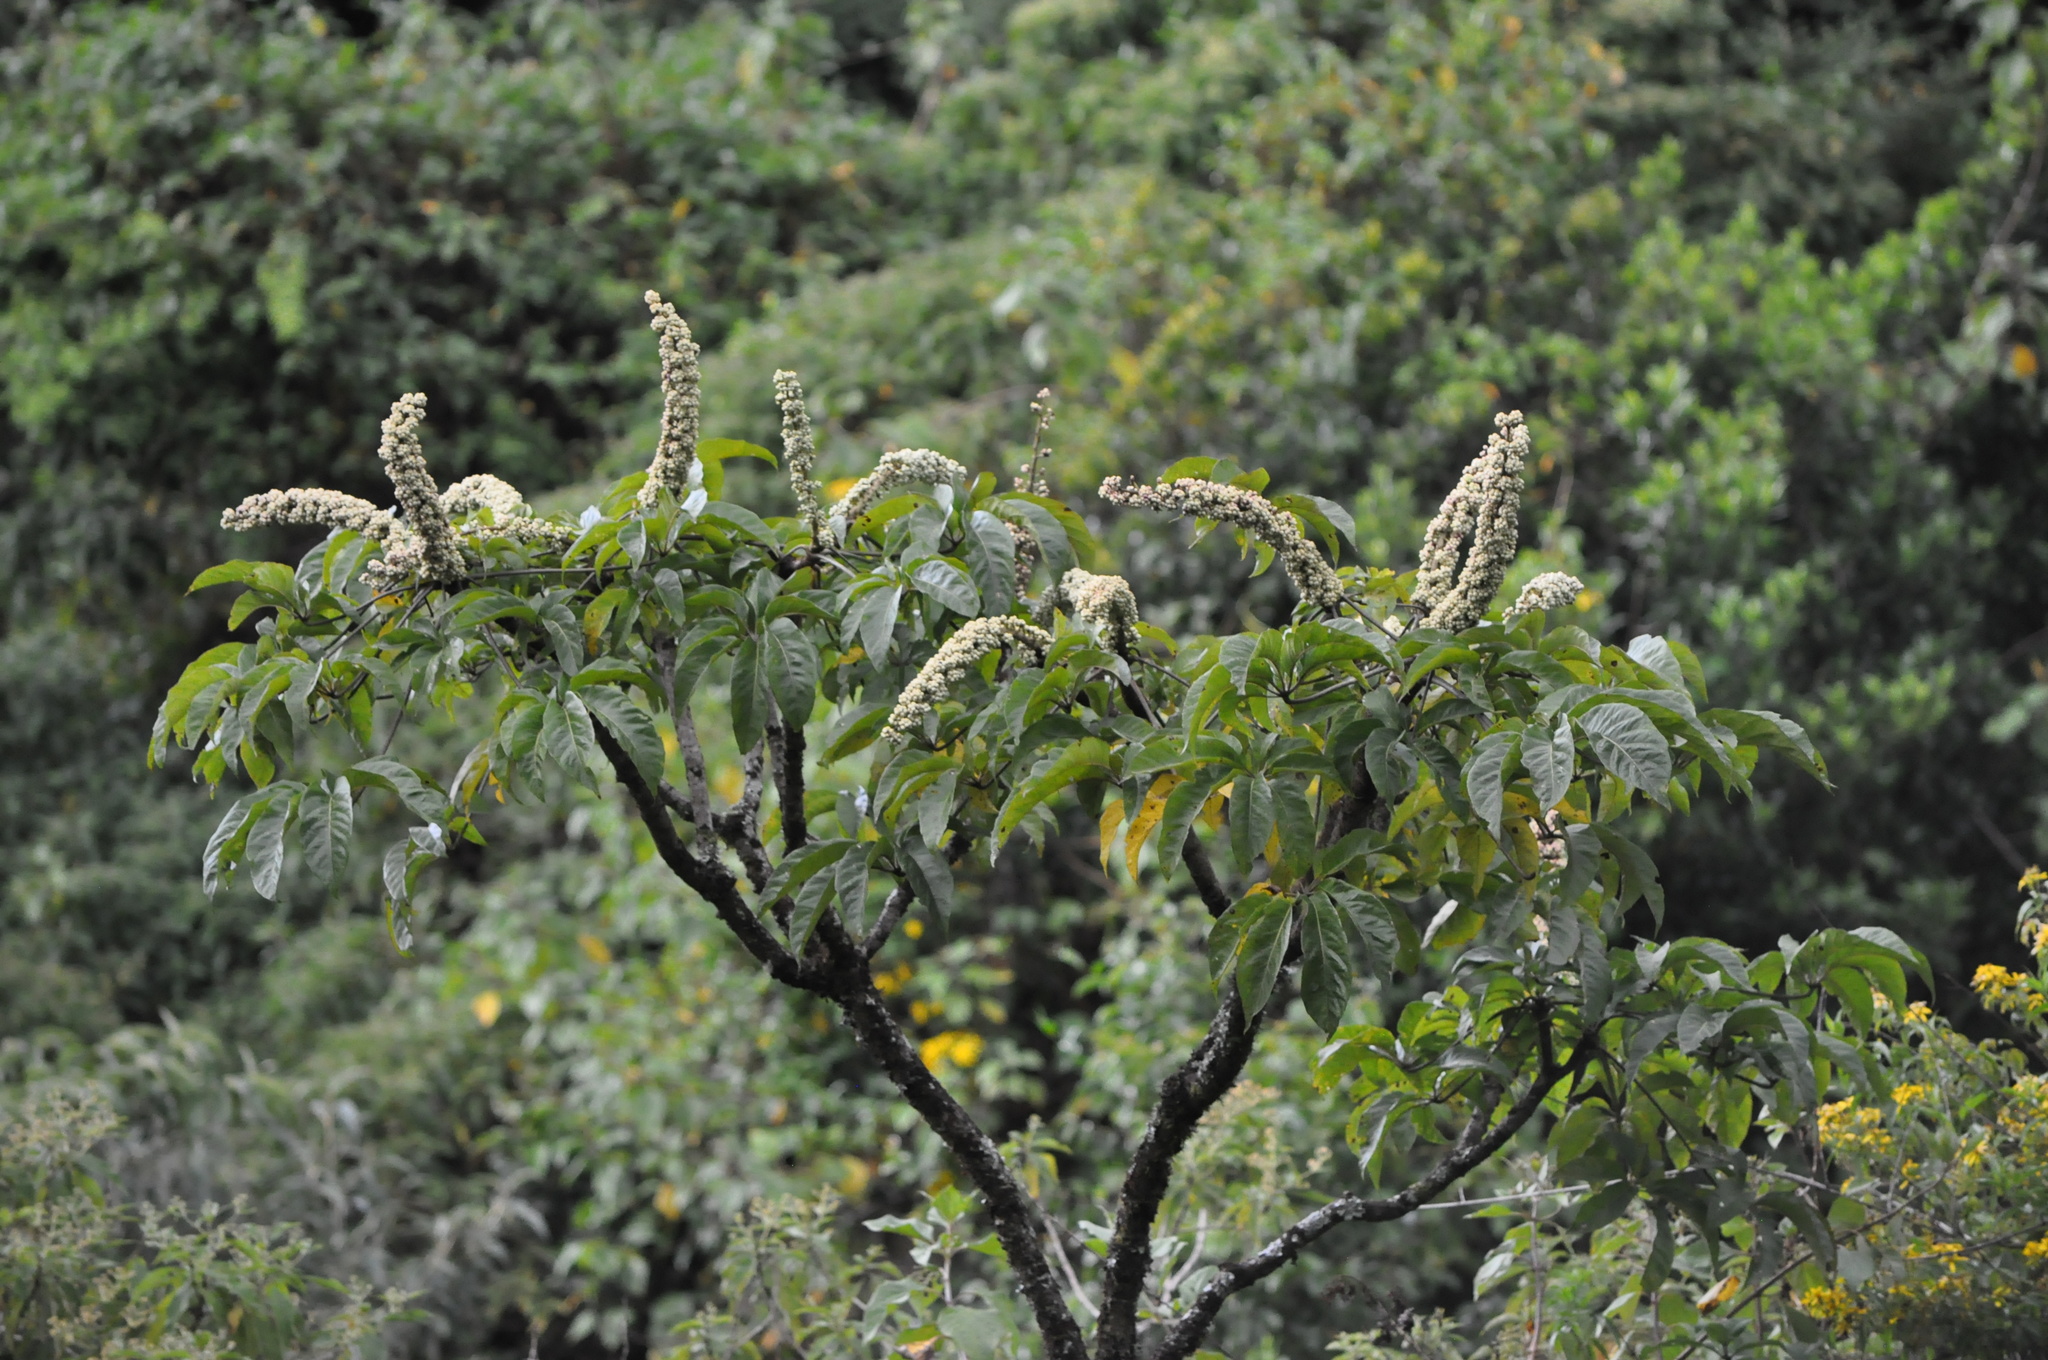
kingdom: Plantae
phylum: Tracheophyta
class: Magnoliopsida
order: Apiales
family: Araliaceae
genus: Oreopanax
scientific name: Oreopanax xalapensis
